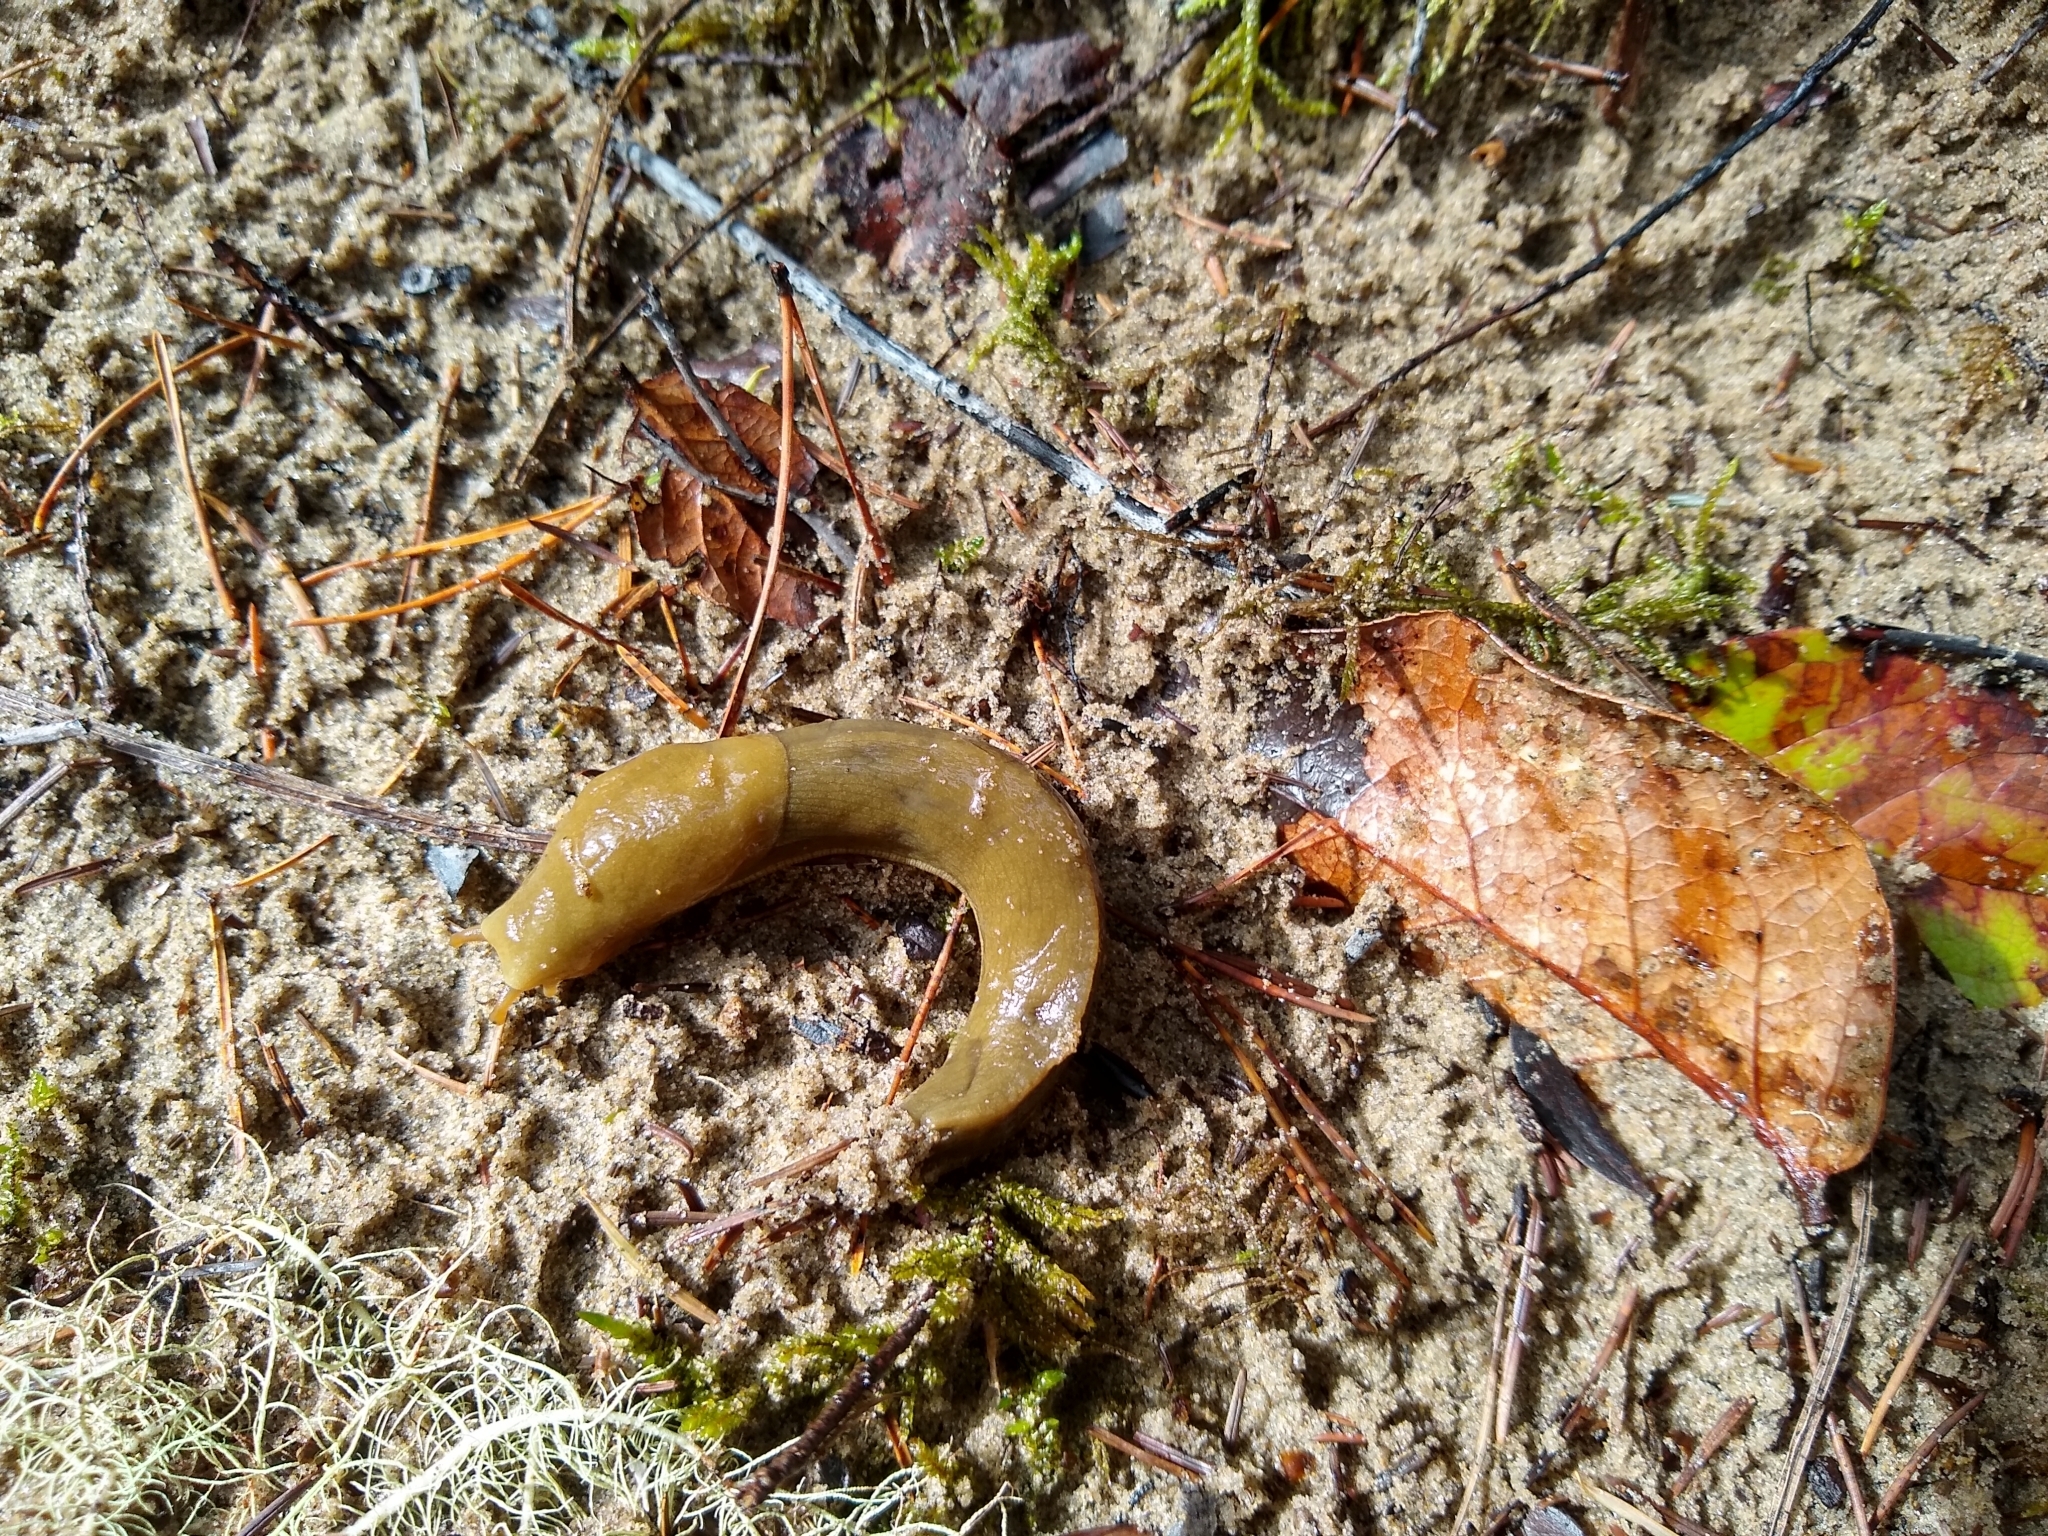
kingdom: Animalia
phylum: Mollusca
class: Gastropoda
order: Stylommatophora
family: Ariolimacidae
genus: Ariolimax
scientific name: Ariolimax columbianus
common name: Pacific banana slug
